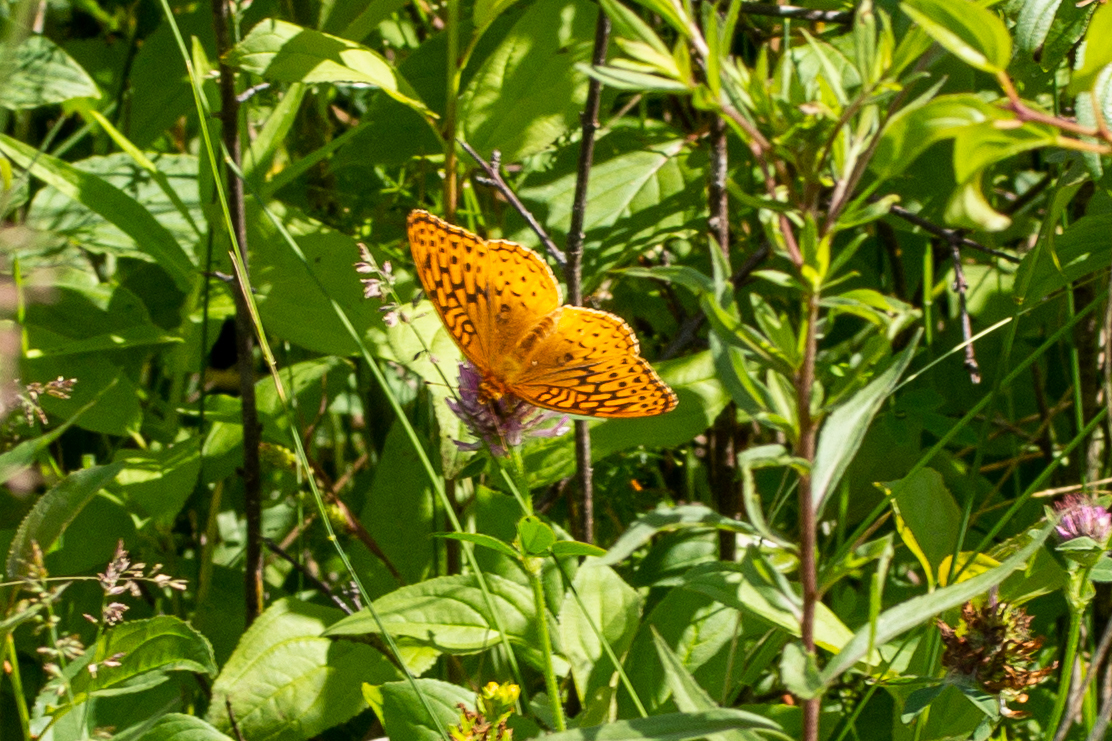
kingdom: Animalia
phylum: Arthropoda
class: Insecta
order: Lepidoptera
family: Nymphalidae
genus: Speyeria
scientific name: Speyeria cybele
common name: Great spangled fritillary
